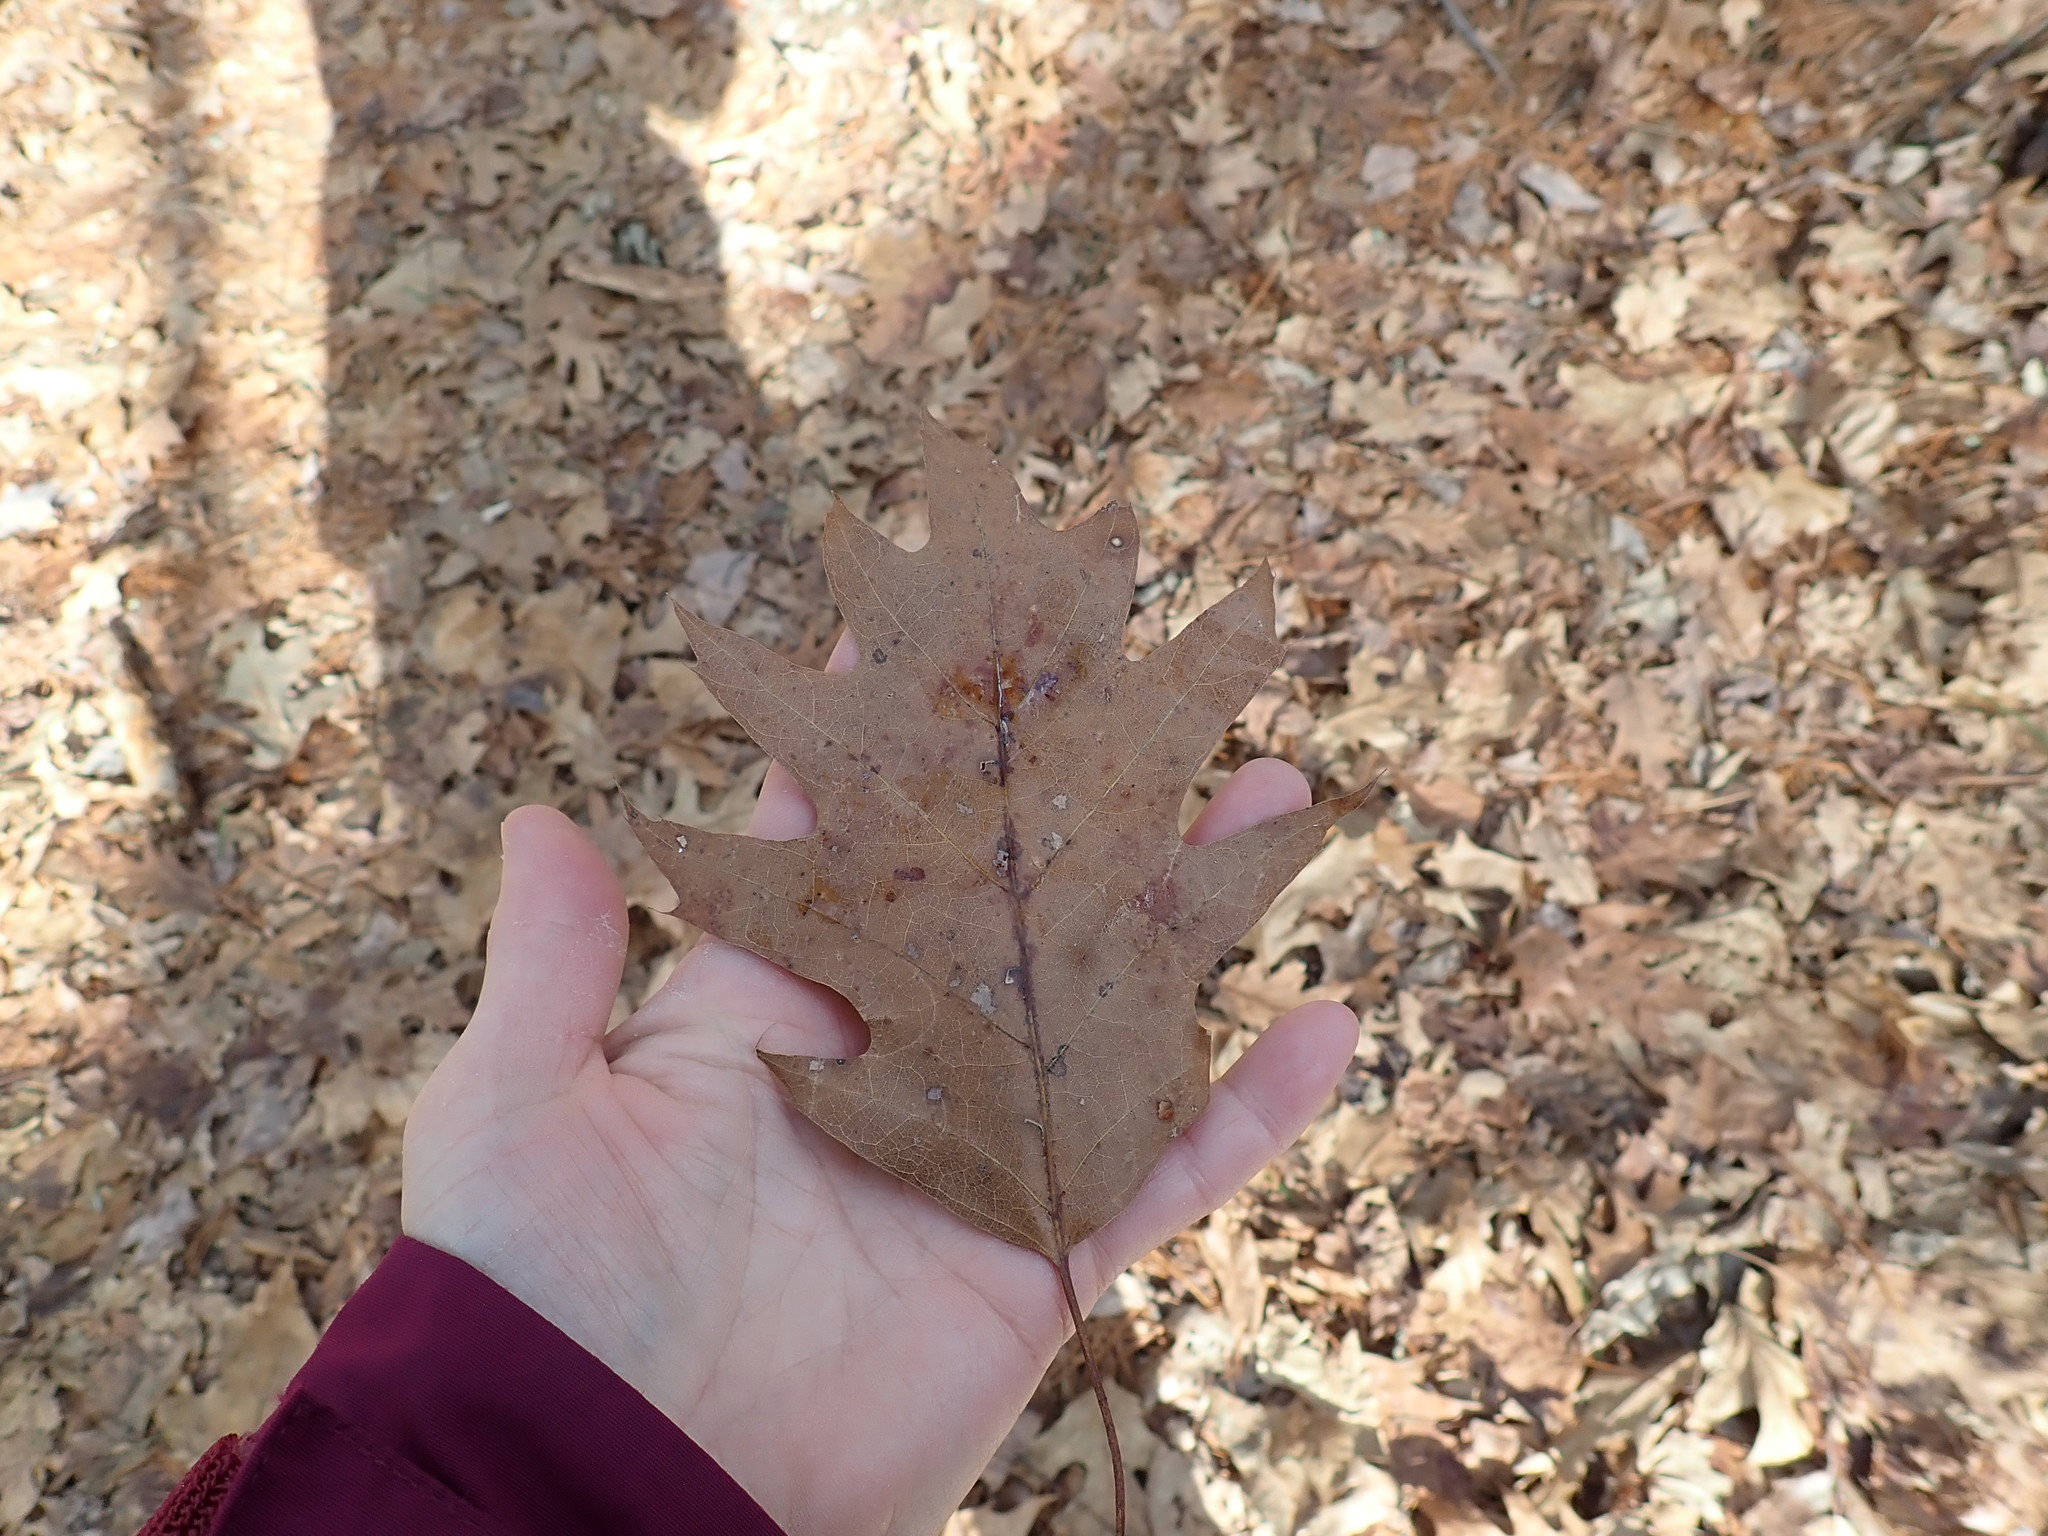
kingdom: Plantae
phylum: Tracheophyta
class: Magnoliopsida
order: Fagales
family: Fagaceae
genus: Quercus
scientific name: Quercus rubra
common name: Red oak
